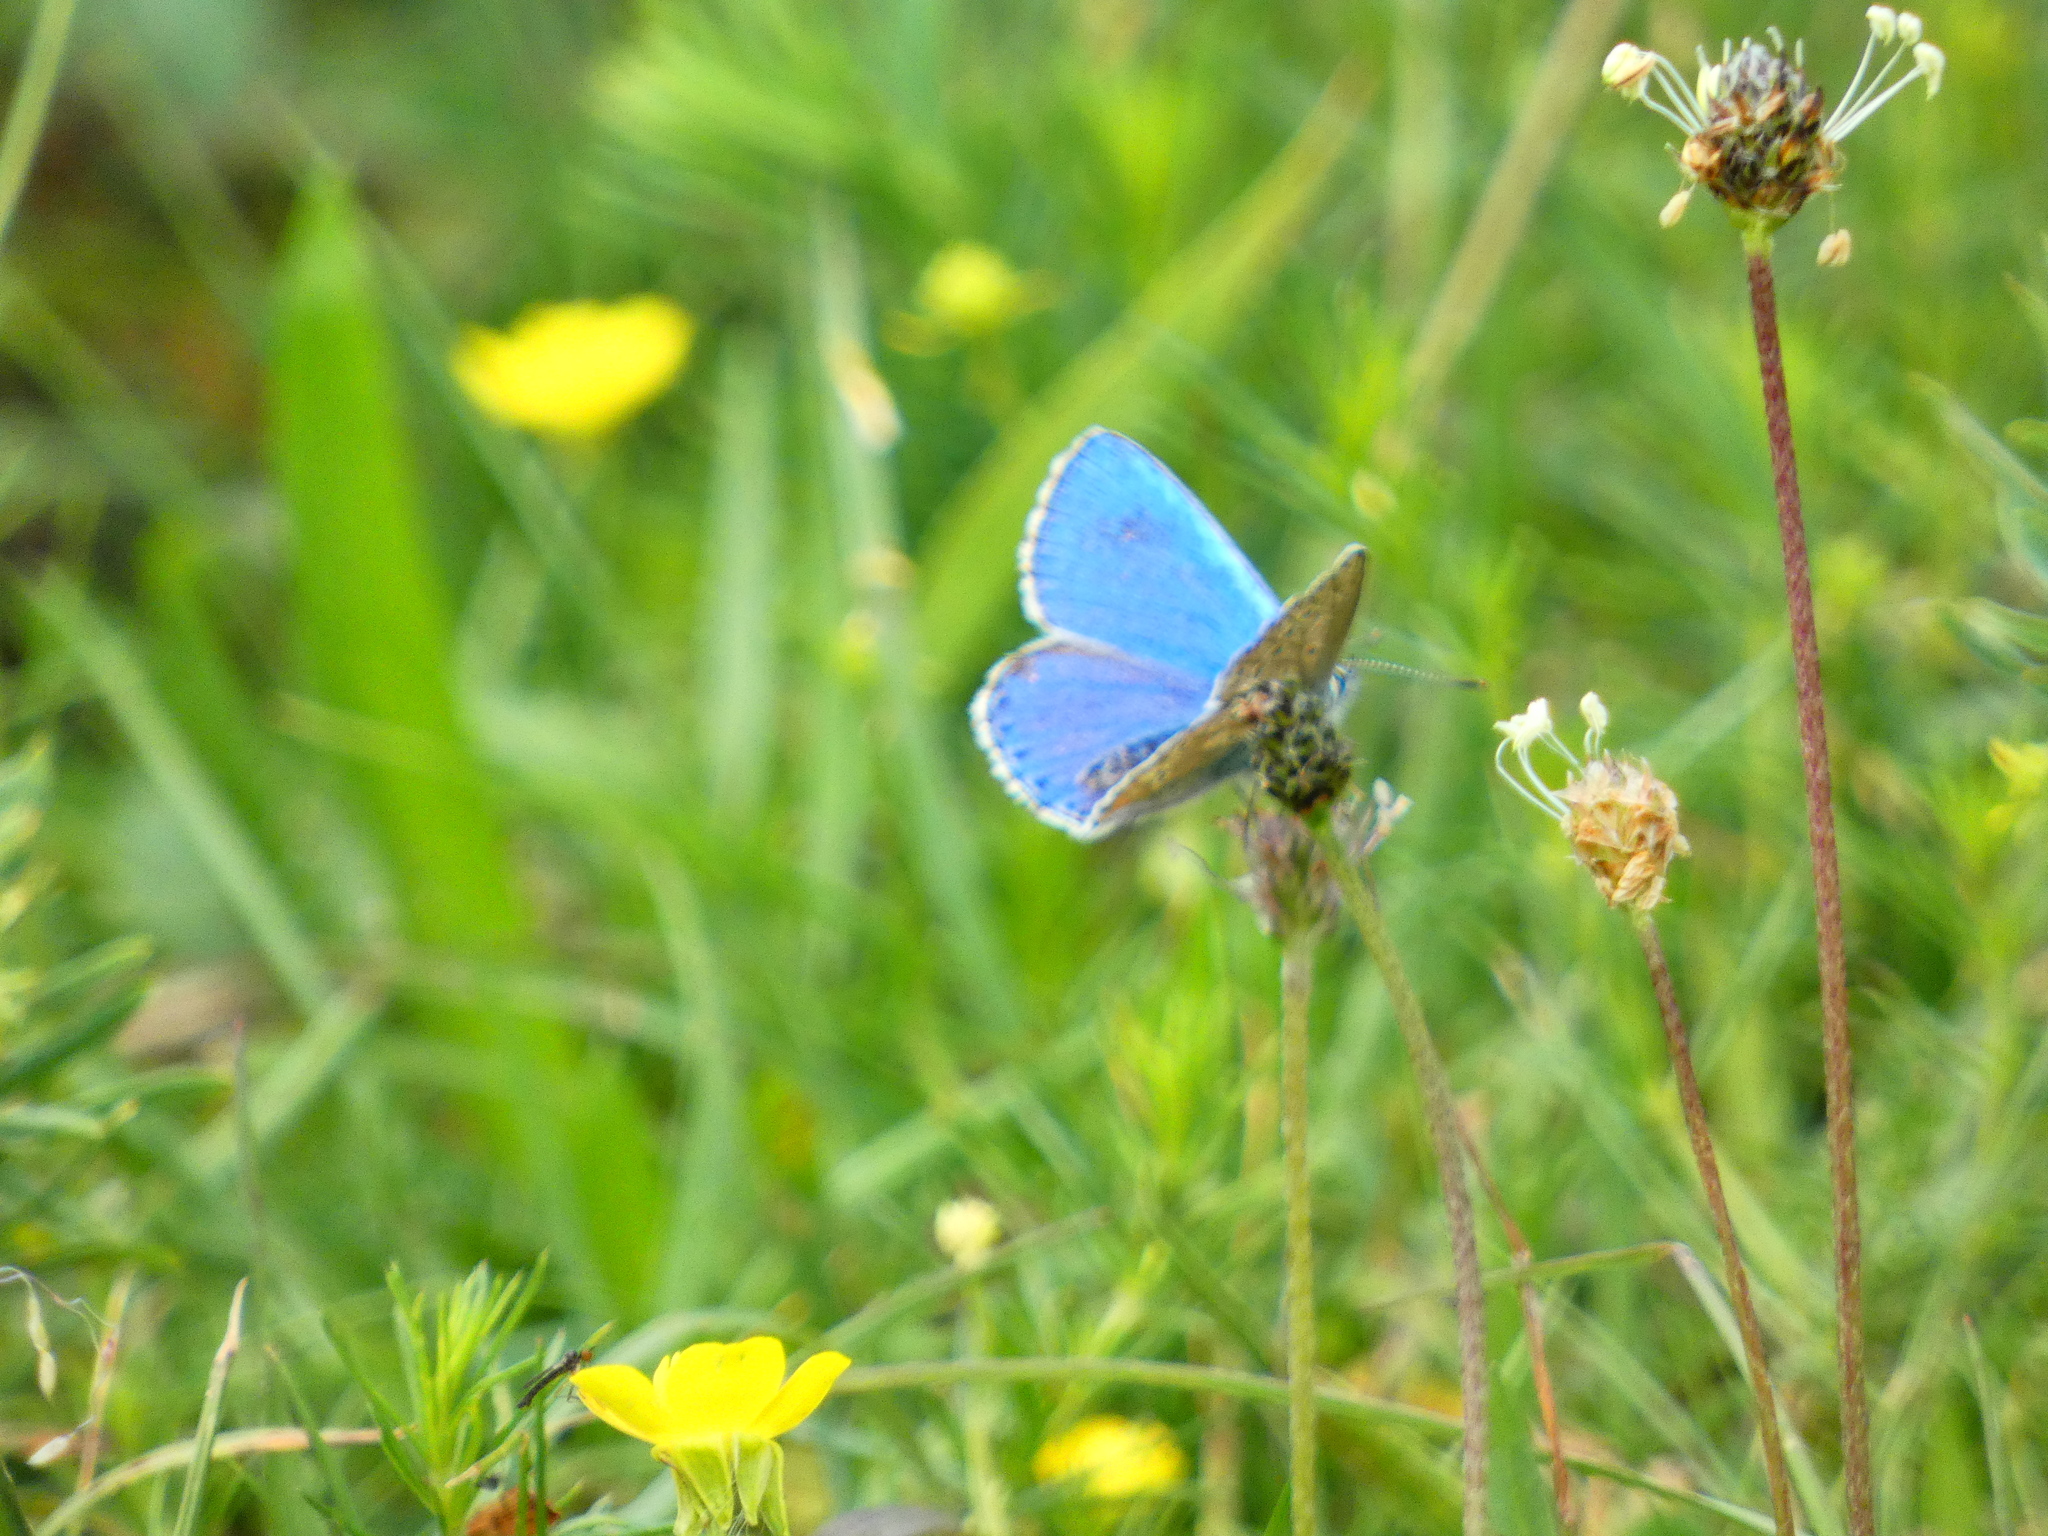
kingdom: Animalia
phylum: Arthropoda
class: Insecta
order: Lepidoptera
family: Lycaenidae
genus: Lysandra
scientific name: Lysandra bellargus
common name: Adonis blue
